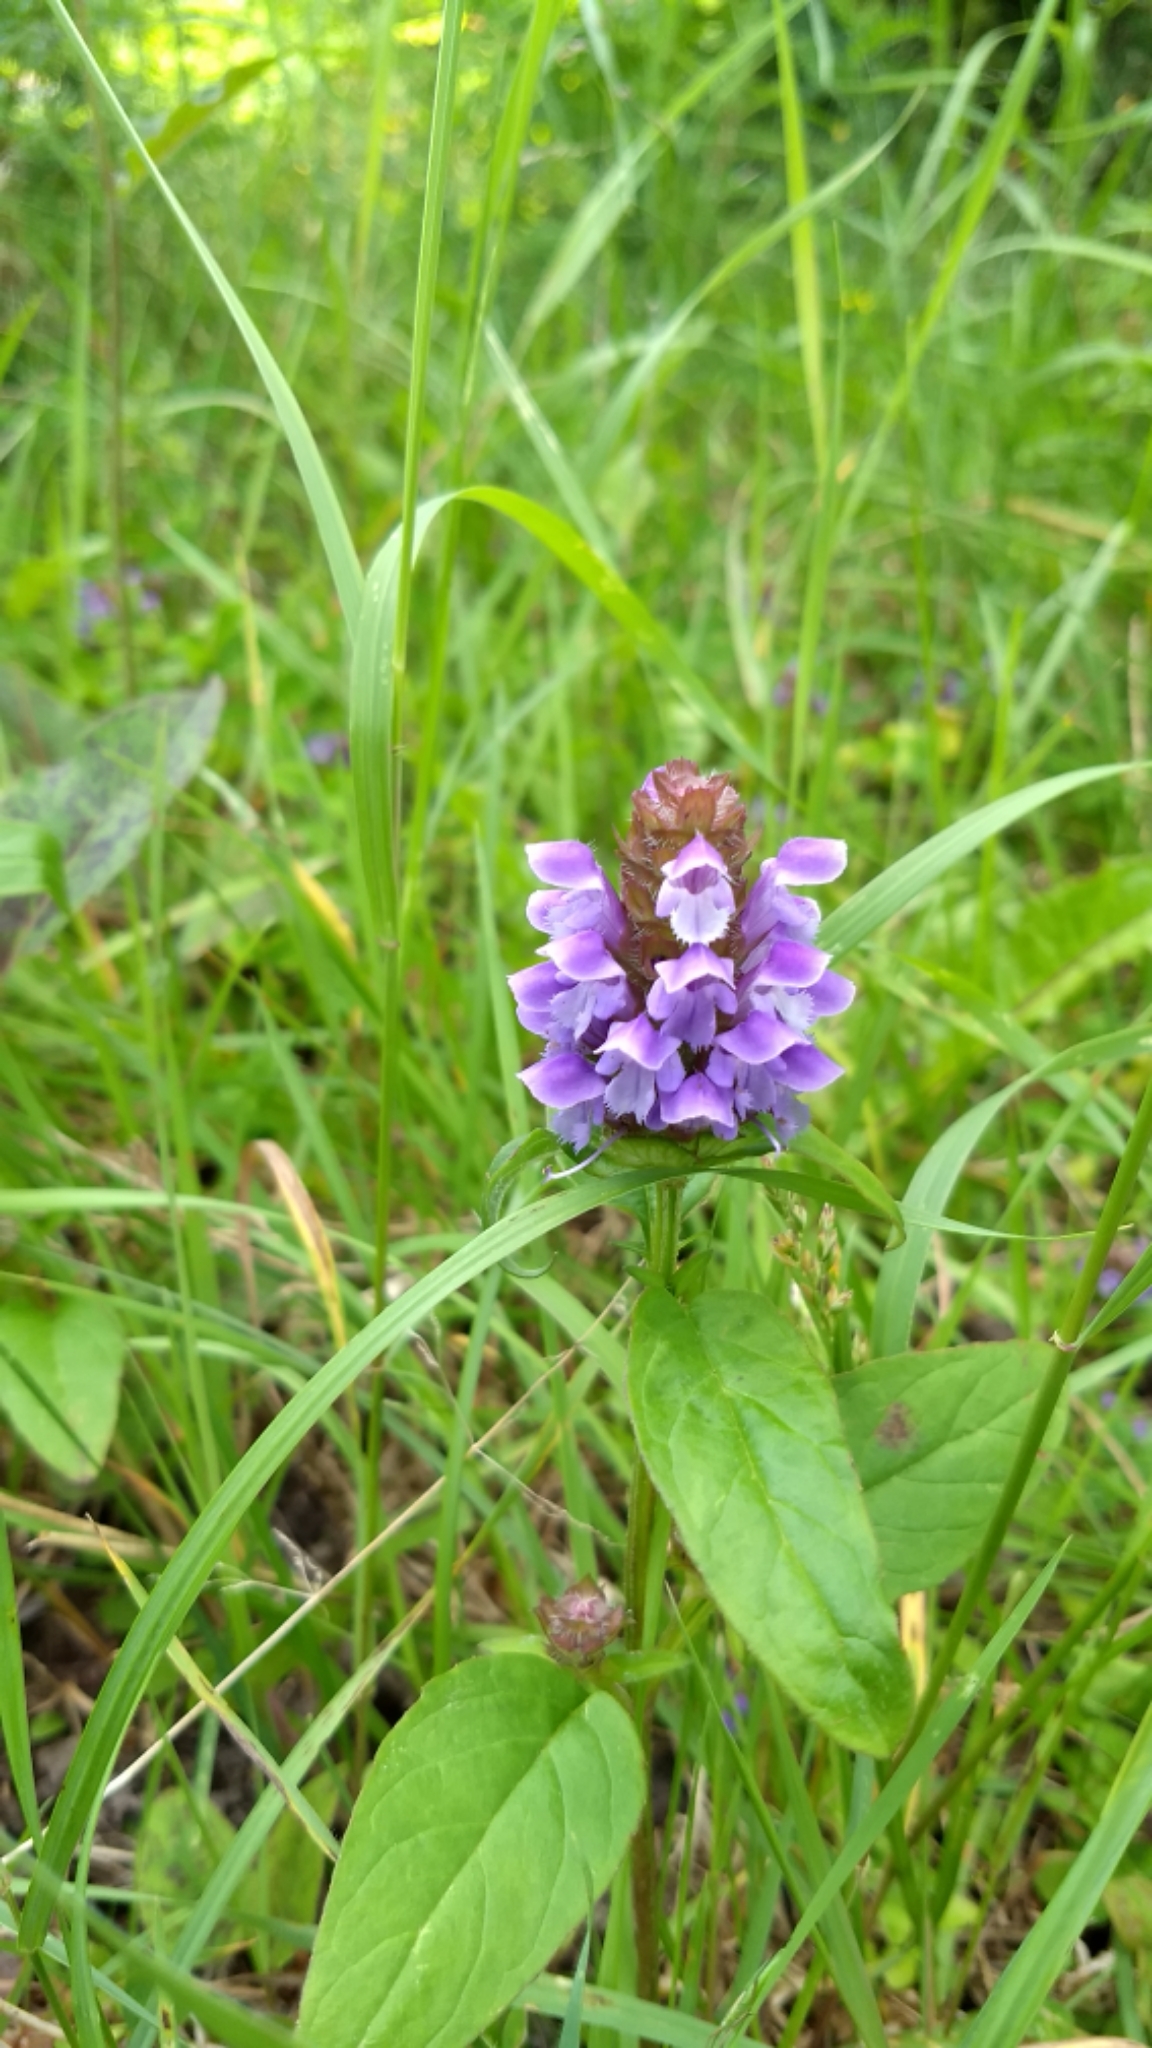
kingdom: Plantae
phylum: Tracheophyta
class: Magnoliopsida
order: Lamiales
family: Lamiaceae
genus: Prunella
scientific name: Prunella vulgaris
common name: Heal-all
